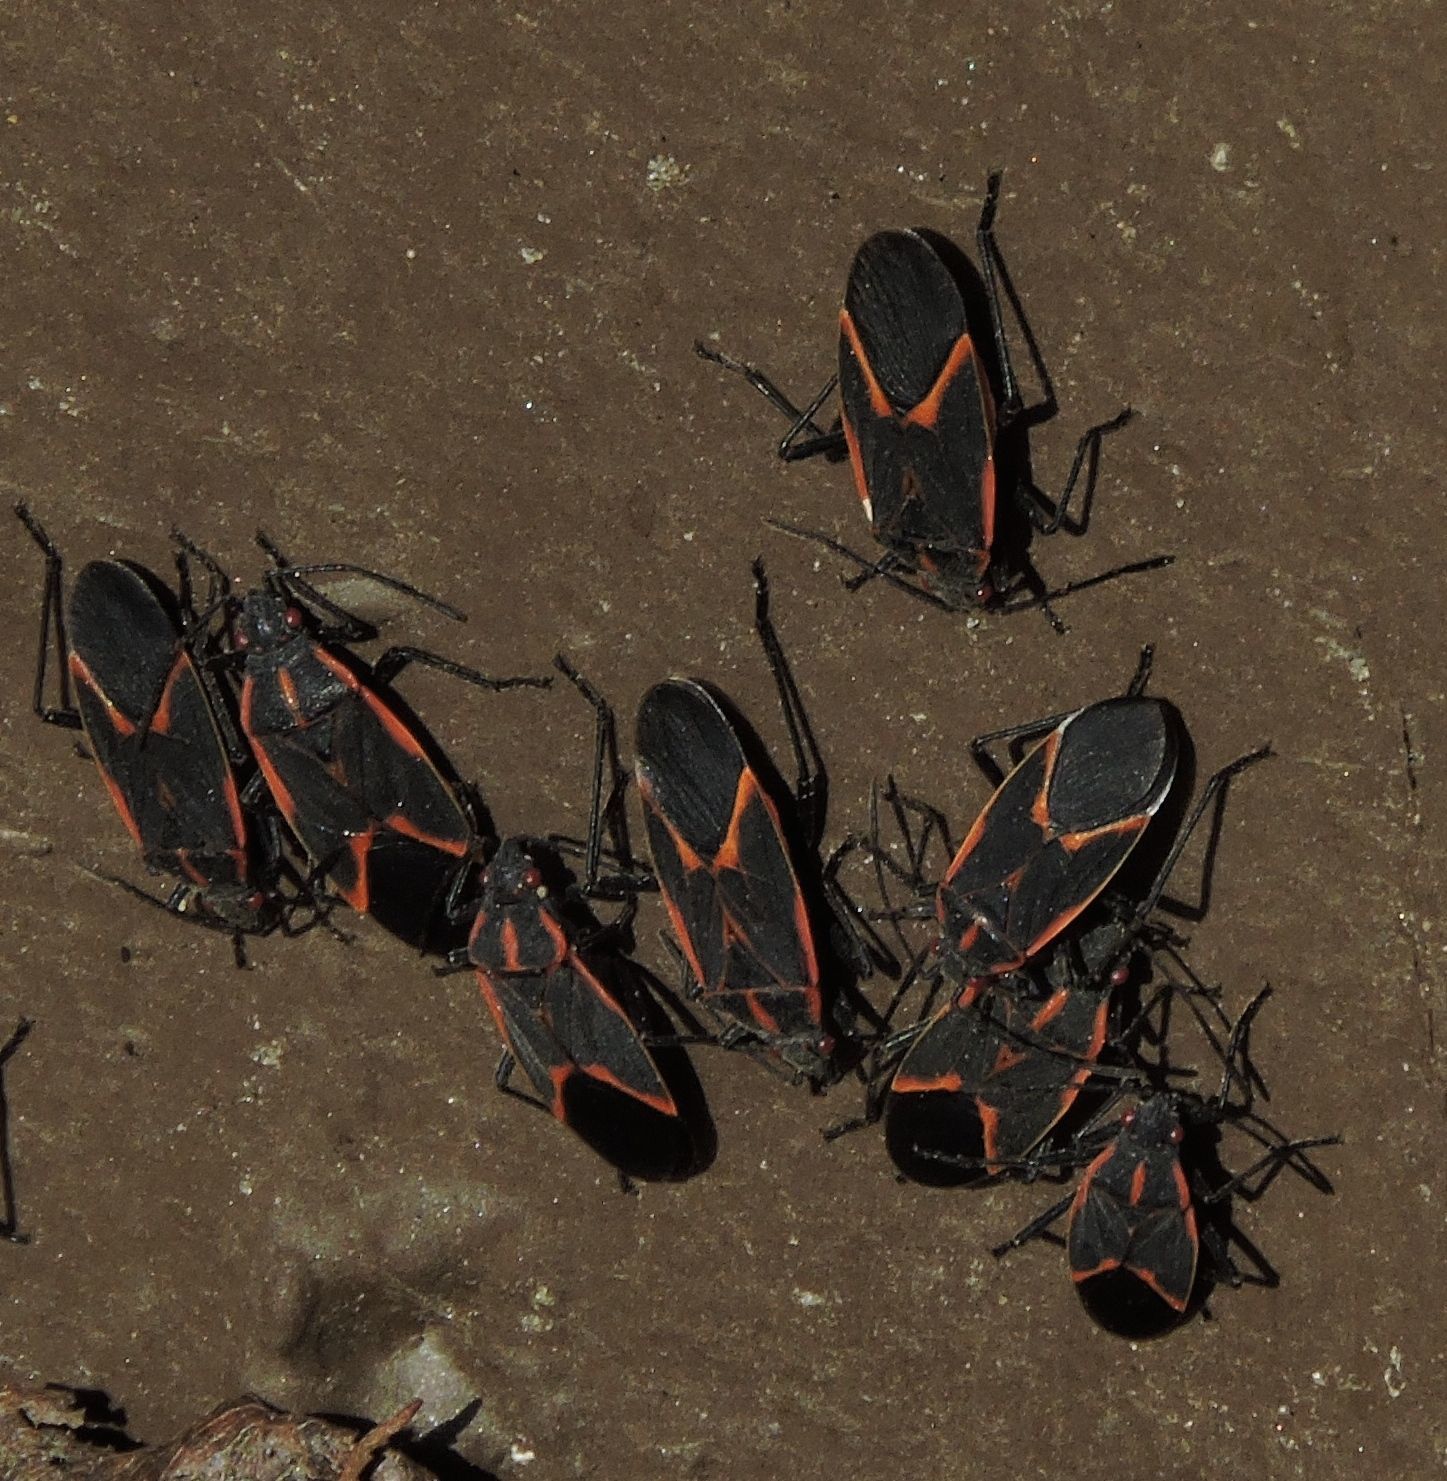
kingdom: Animalia
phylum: Arthropoda
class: Insecta
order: Hemiptera
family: Rhopalidae
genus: Boisea
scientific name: Boisea trivittata
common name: Boxelder bug
